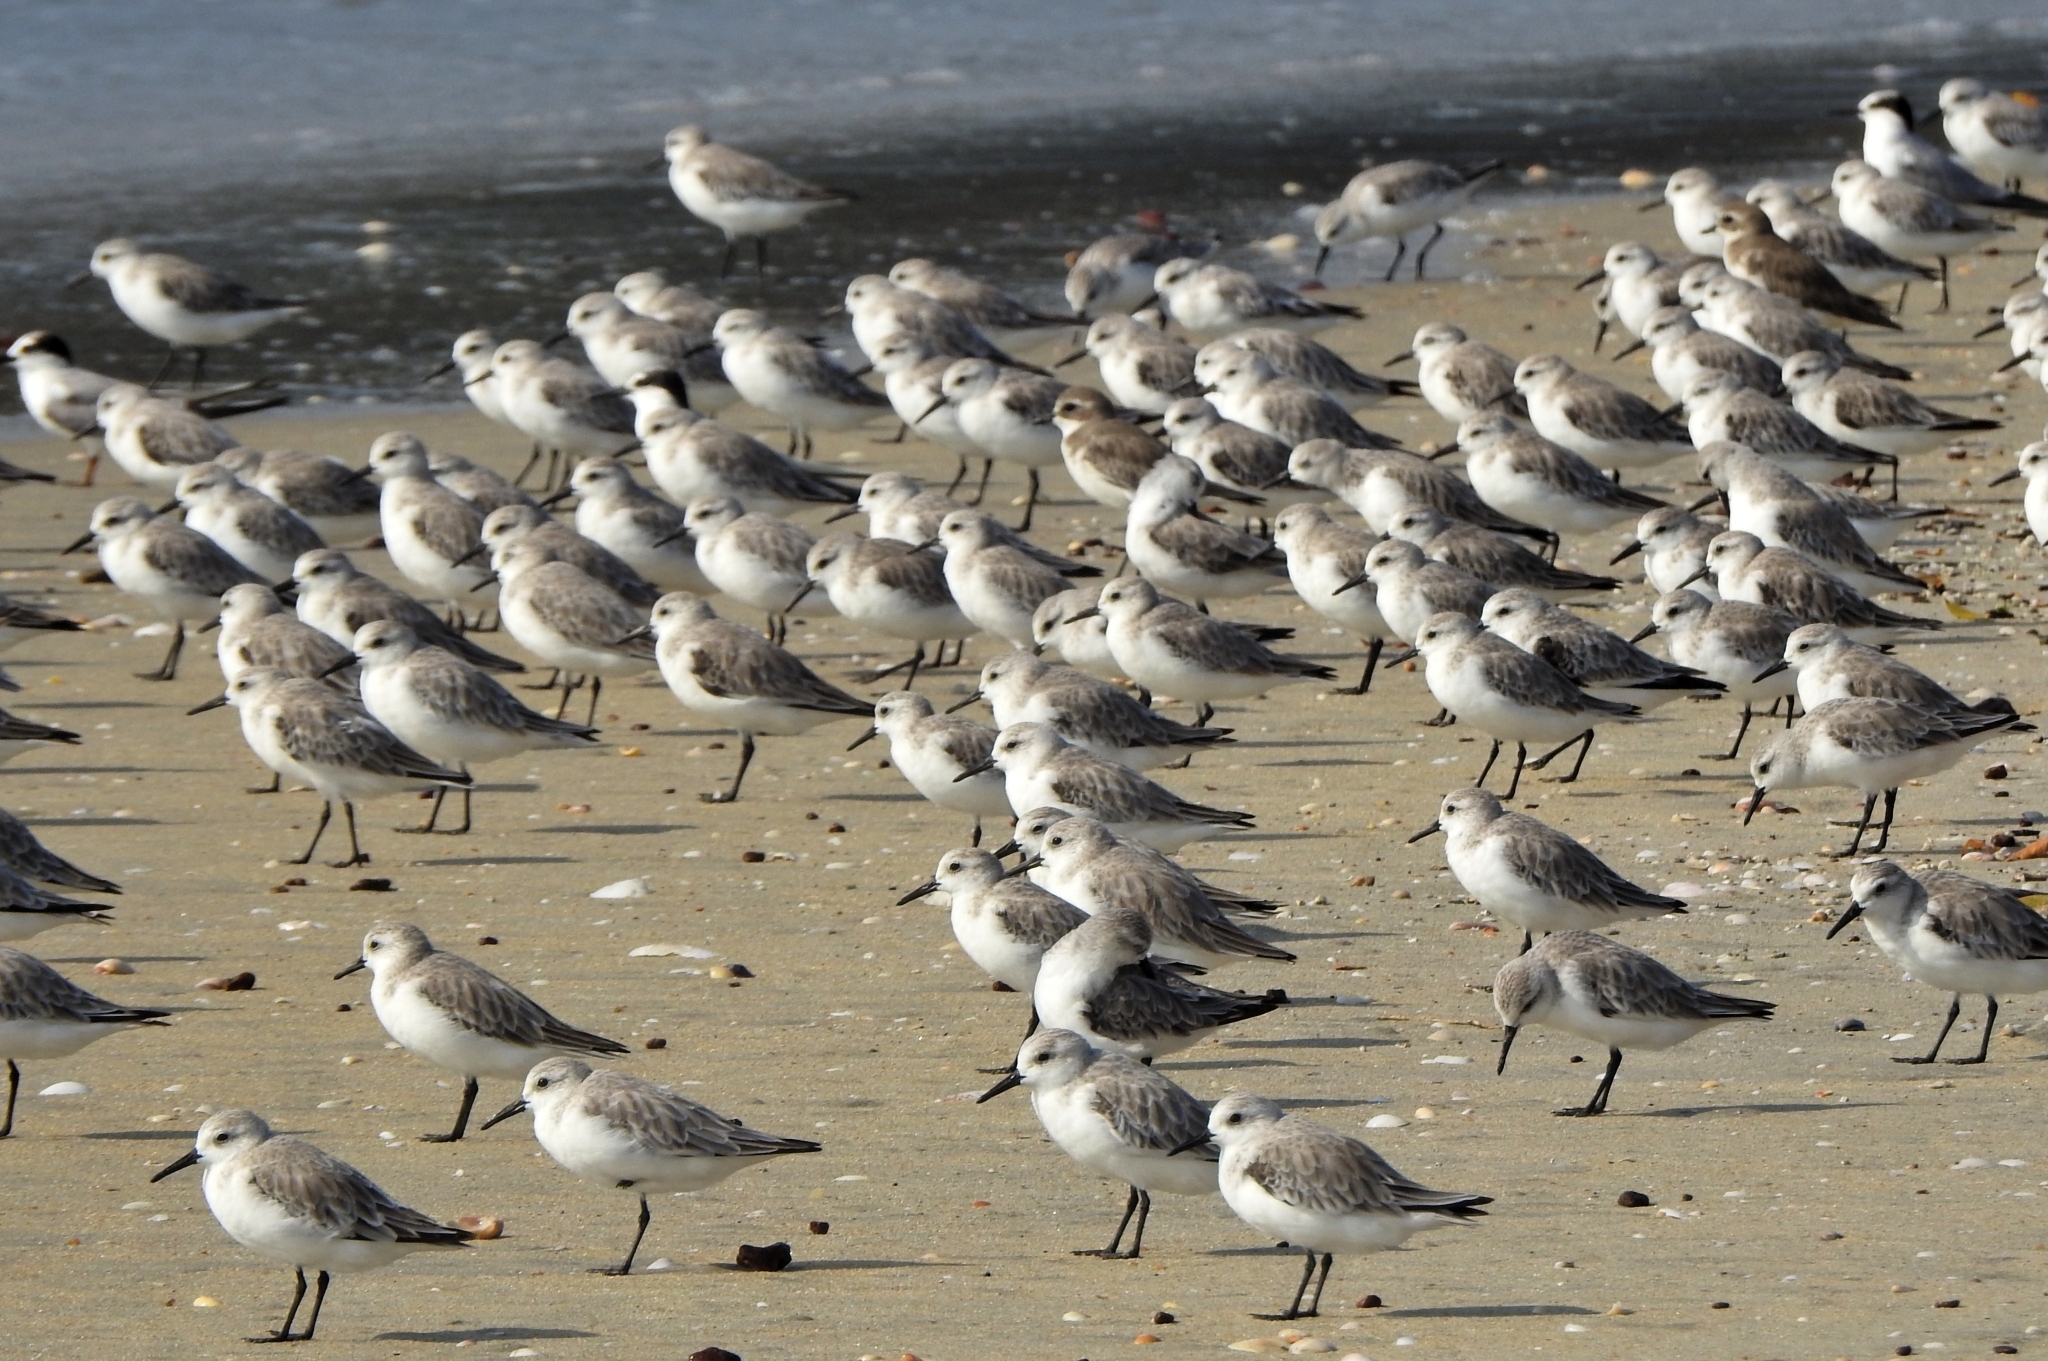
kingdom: Animalia
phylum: Chordata
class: Aves
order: Charadriiformes
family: Scolopacidae
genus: Calidris
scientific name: Calidris alba
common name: Sanderling
